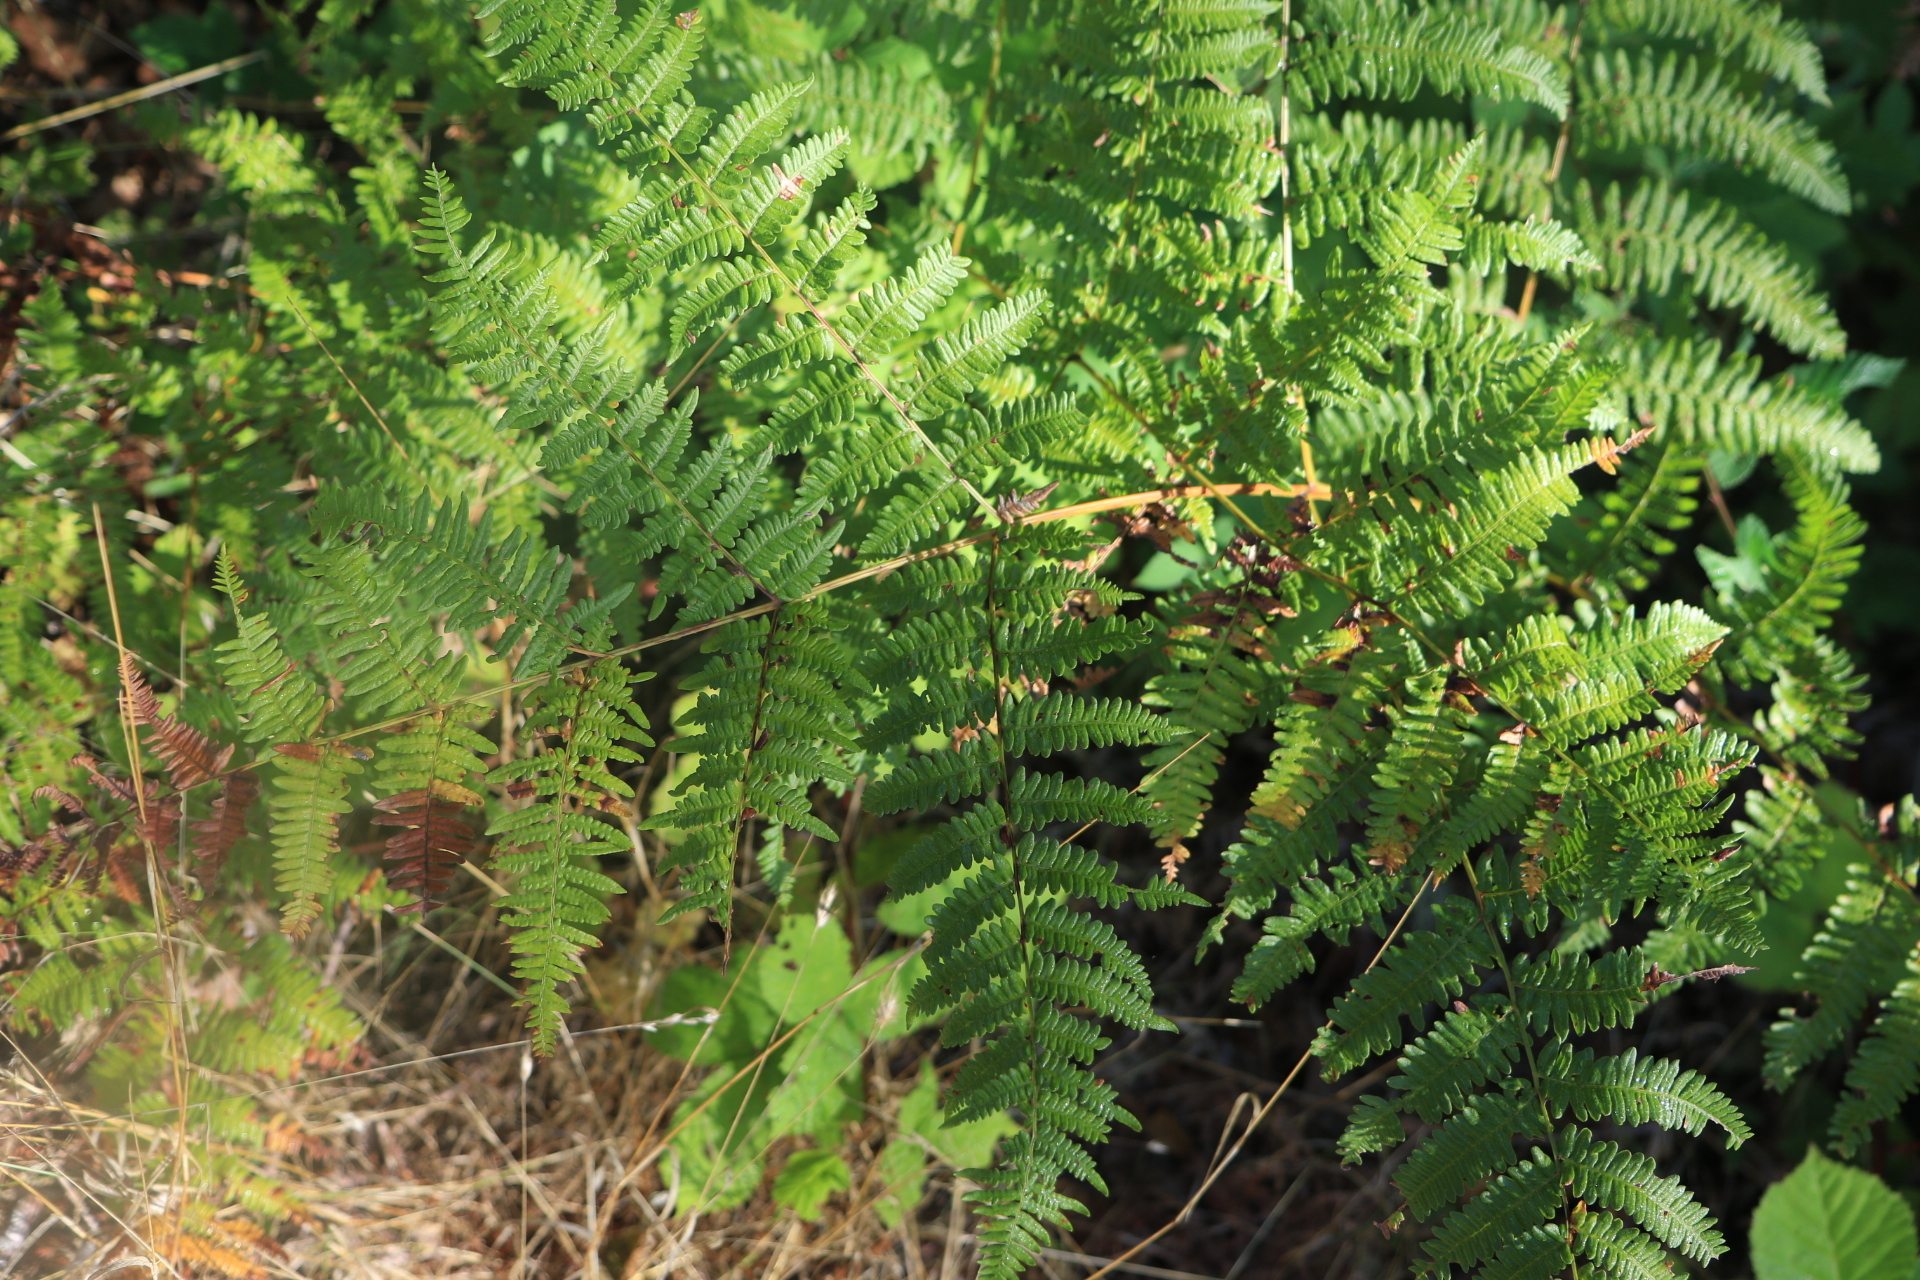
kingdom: Plantae
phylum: Tracheophyta
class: Polypodiopsida
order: Polypodiales
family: Dennstaedtiaceae
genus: Pteridium
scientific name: Pteridium aquilinum
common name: Bracken
